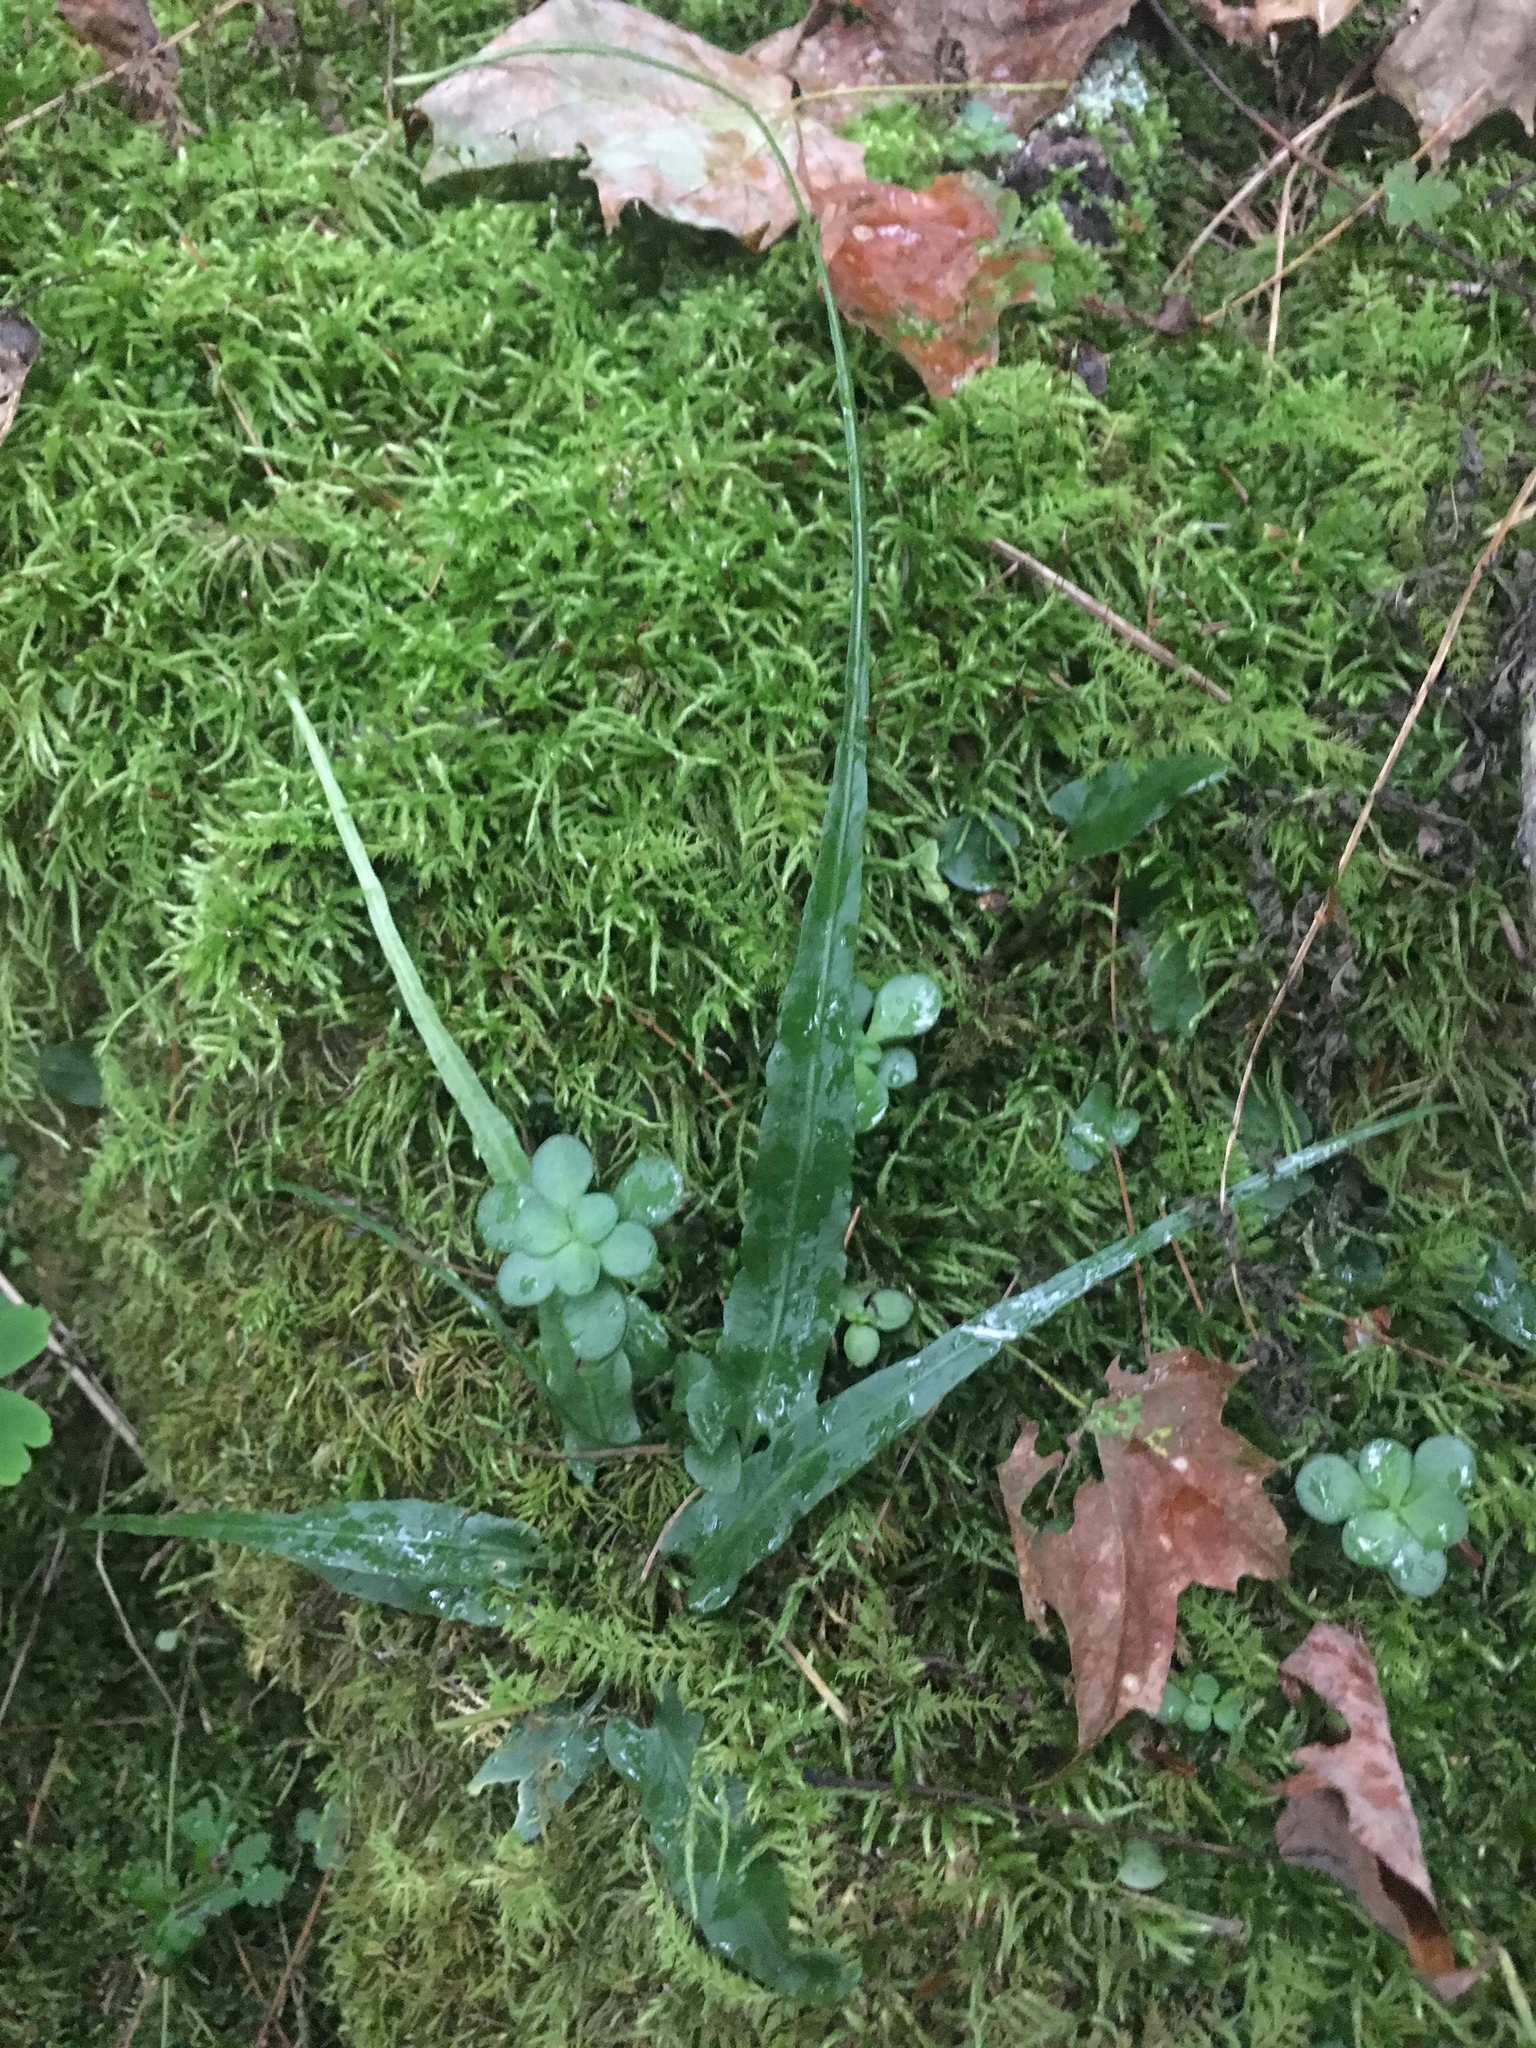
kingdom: Plantae
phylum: Tracheophyta
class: Polypodiopsida
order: Polypodiales
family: Aspleniaceae
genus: Asplenium
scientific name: Asplenium rhizophyllum
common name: Walking fern
